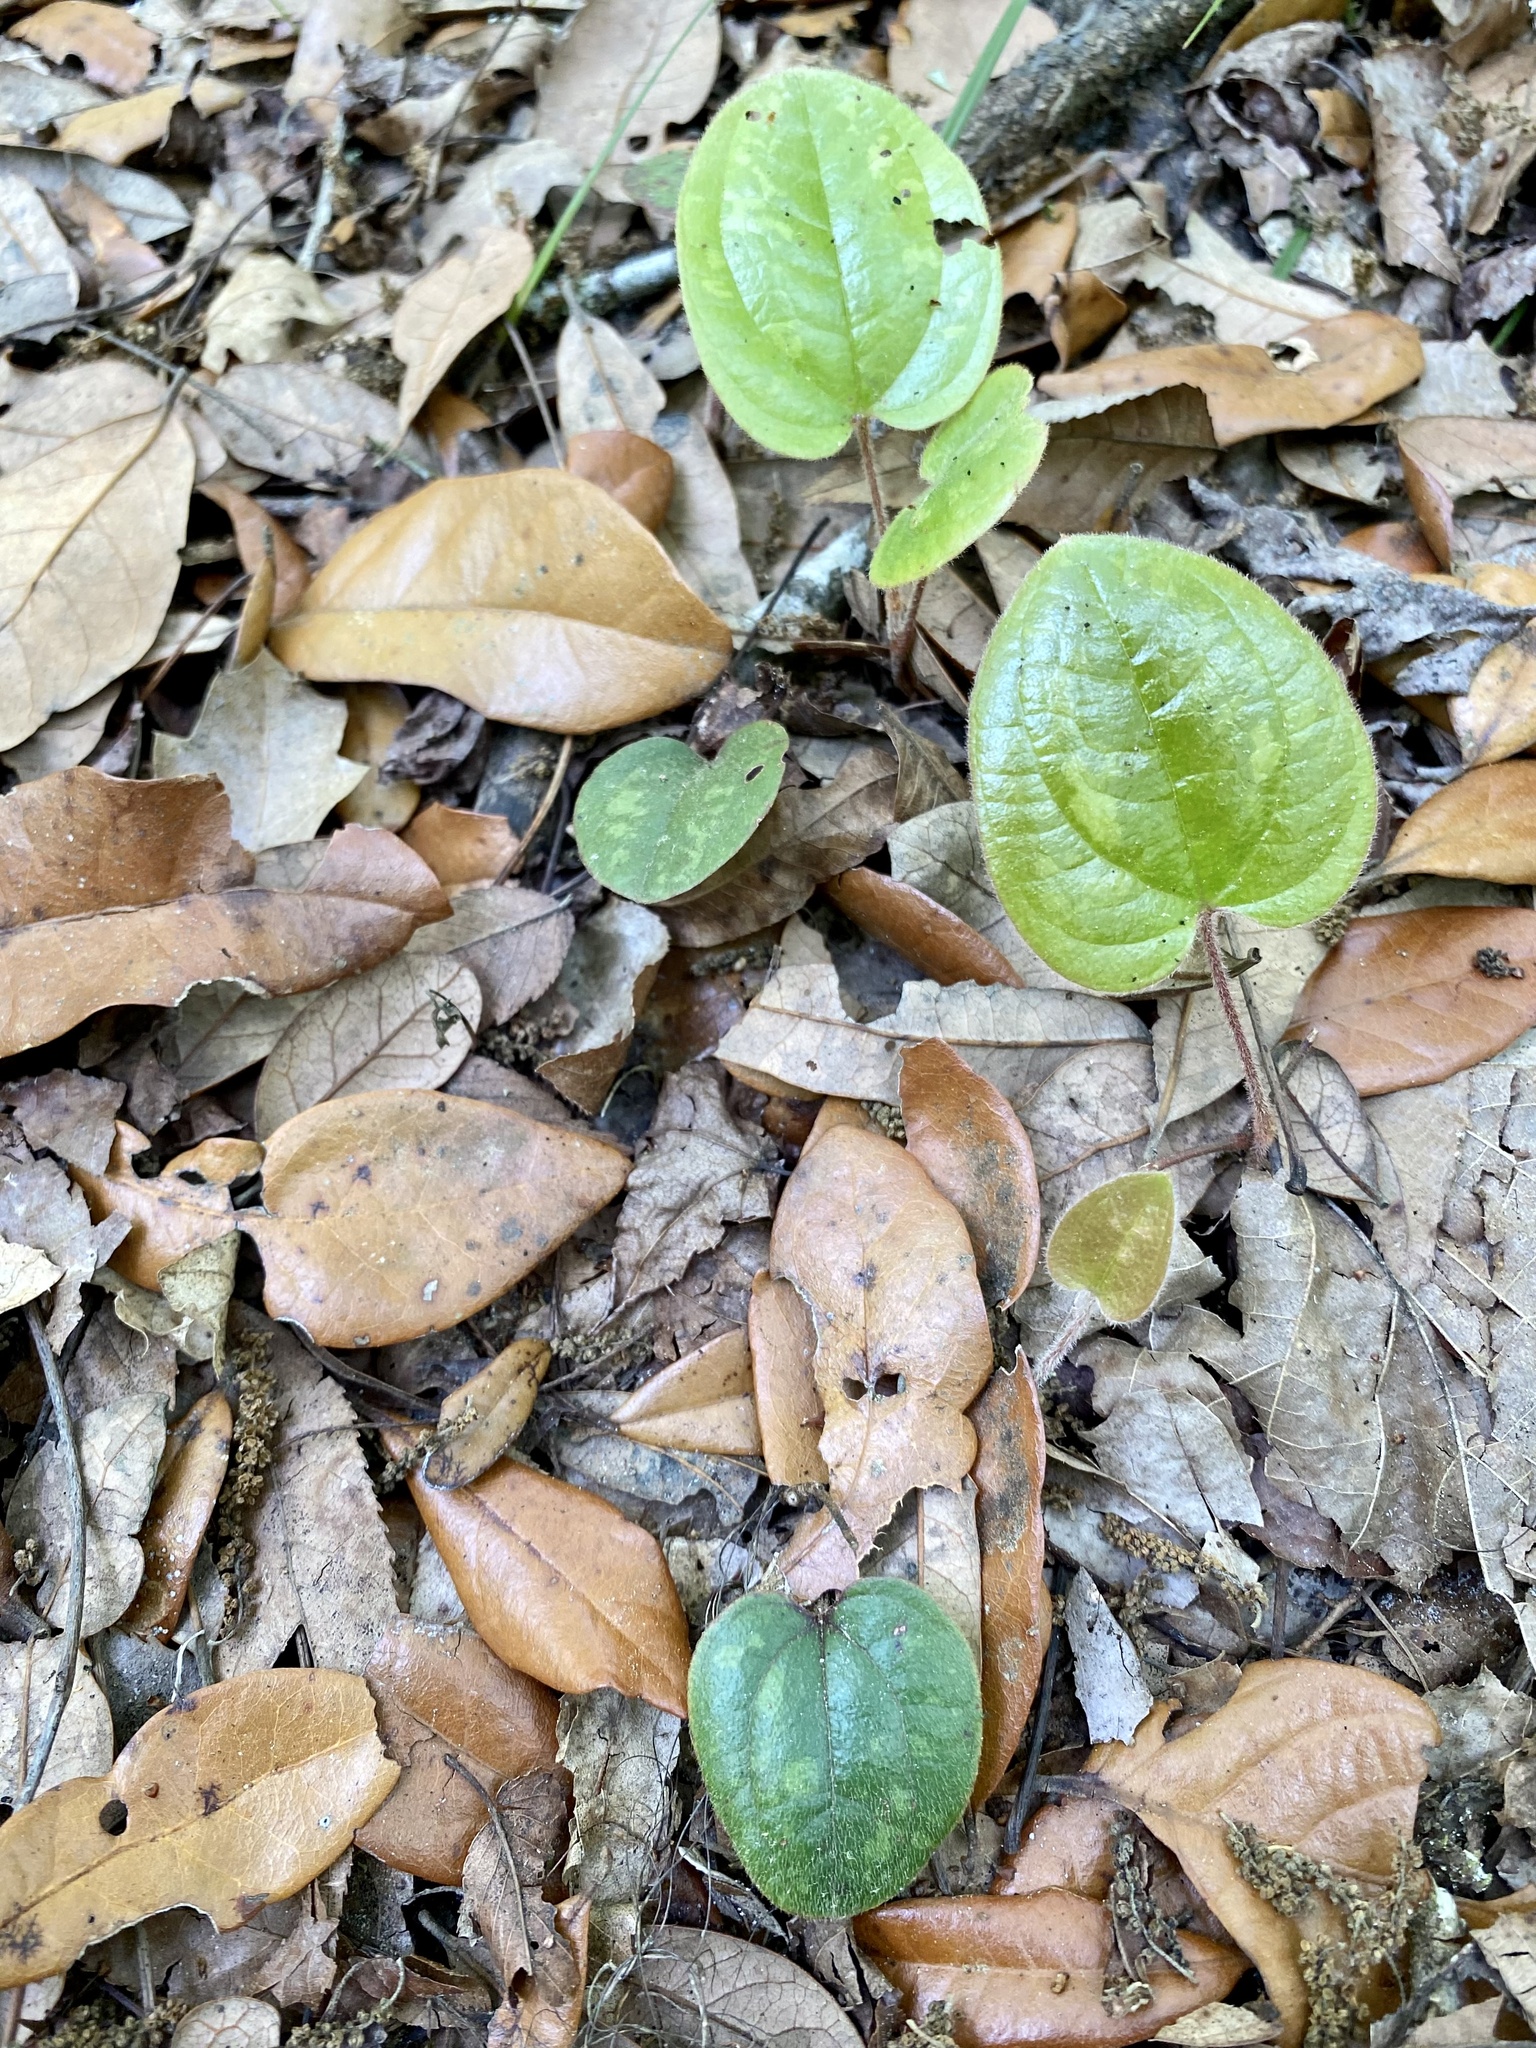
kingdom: Plantae
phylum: Tracheophyta
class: Liliopsida
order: Liliales
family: Smilacaceae
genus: Smilax
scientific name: Smilax pumila
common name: Sarsaparilla-vine
